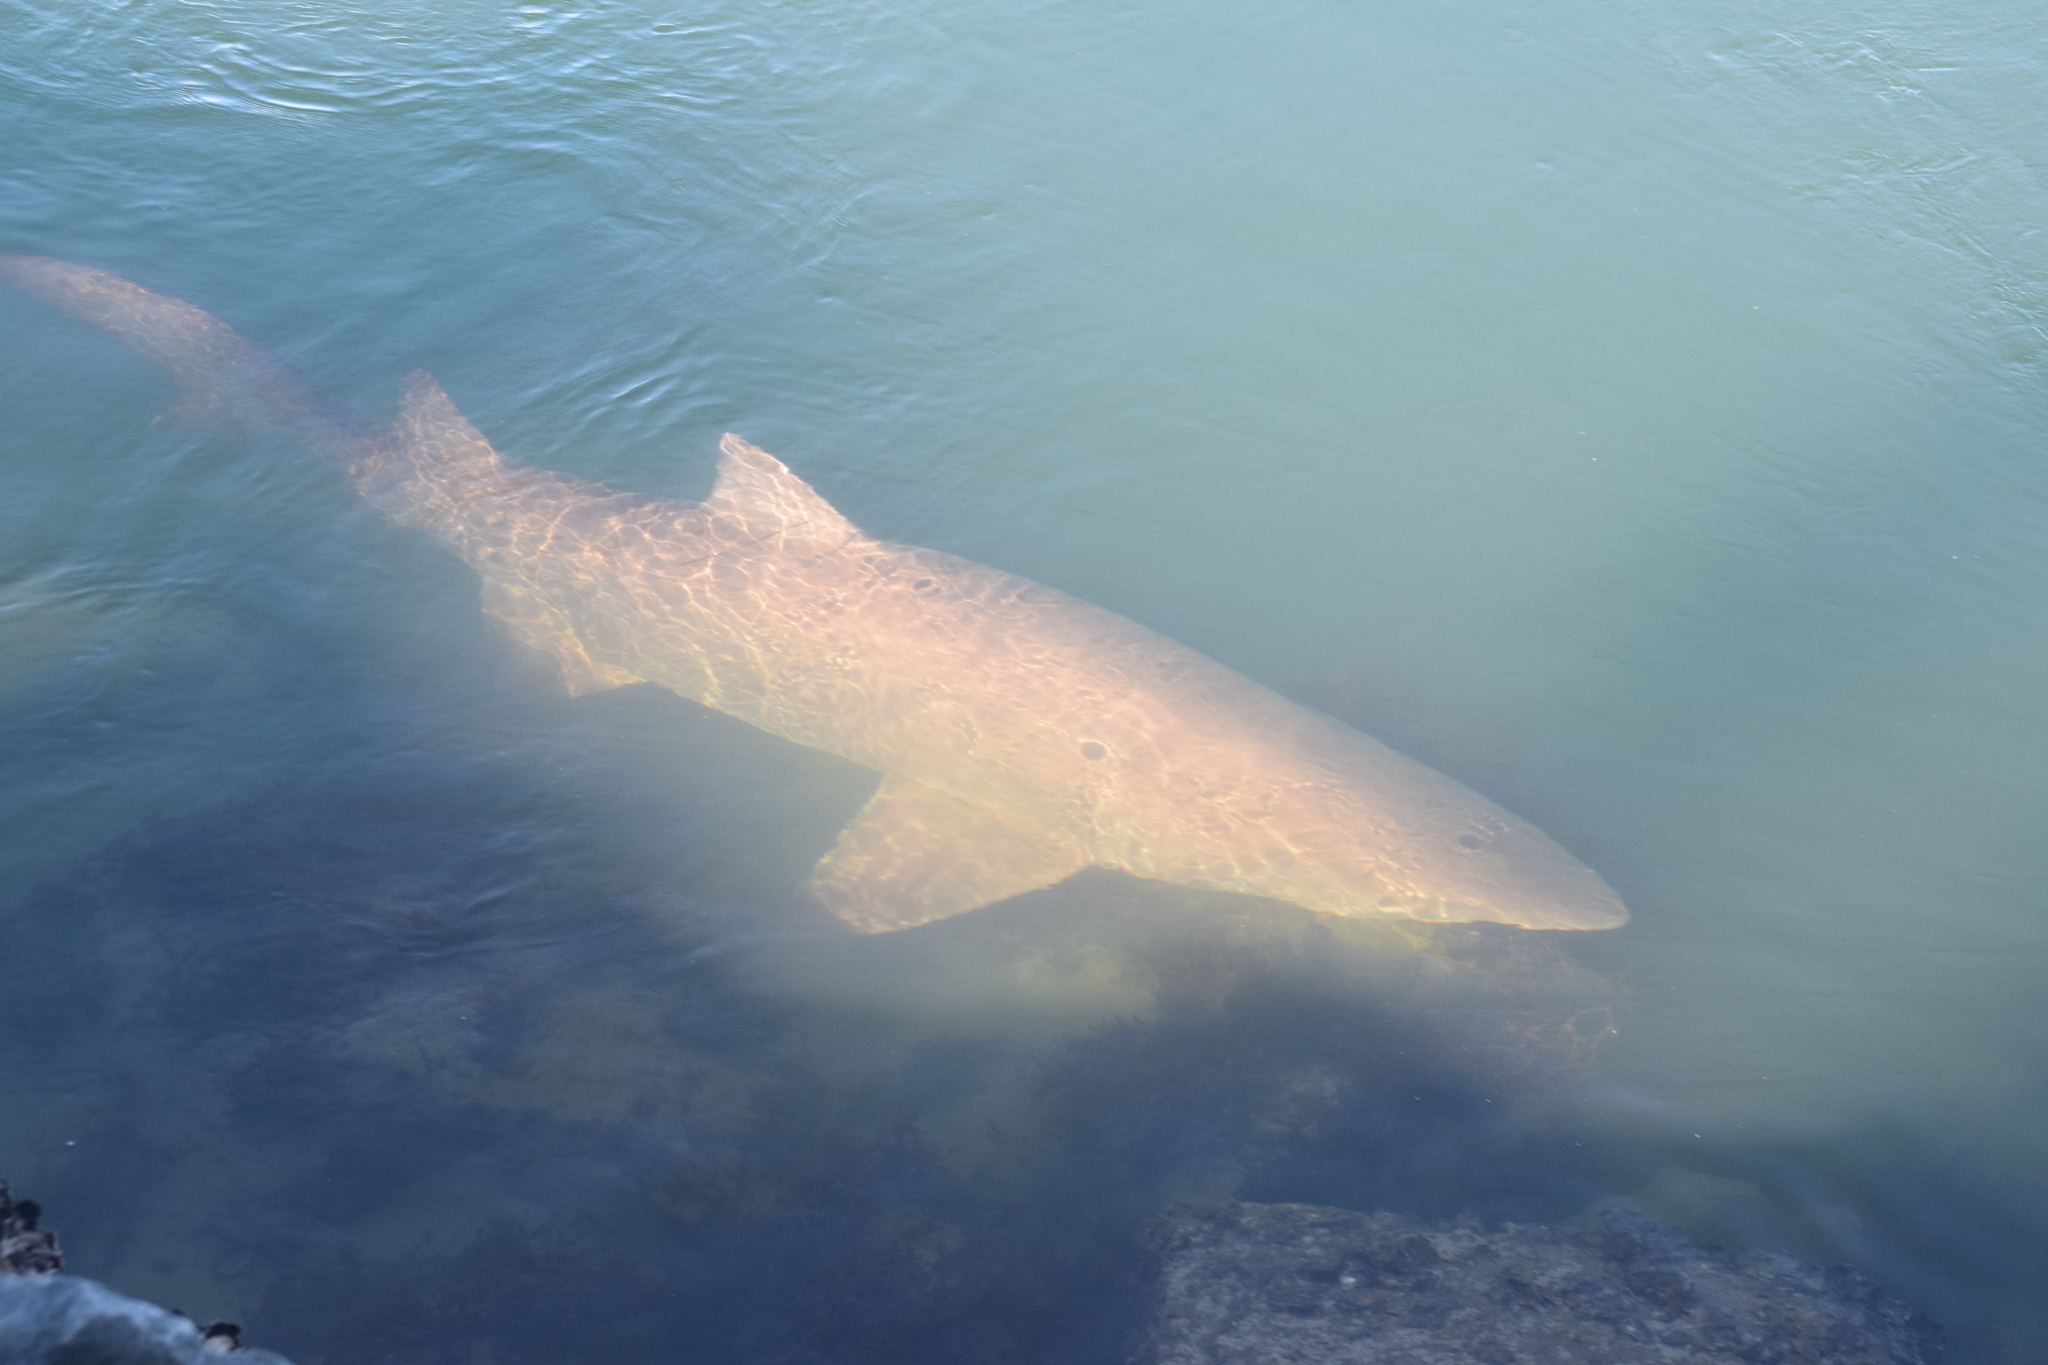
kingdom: Animalia
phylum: Chordata
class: Elasmobranchii
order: Lamniformes
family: Odontaspididae
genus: Carcharias
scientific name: Carcharias taurus
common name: Sand shark
